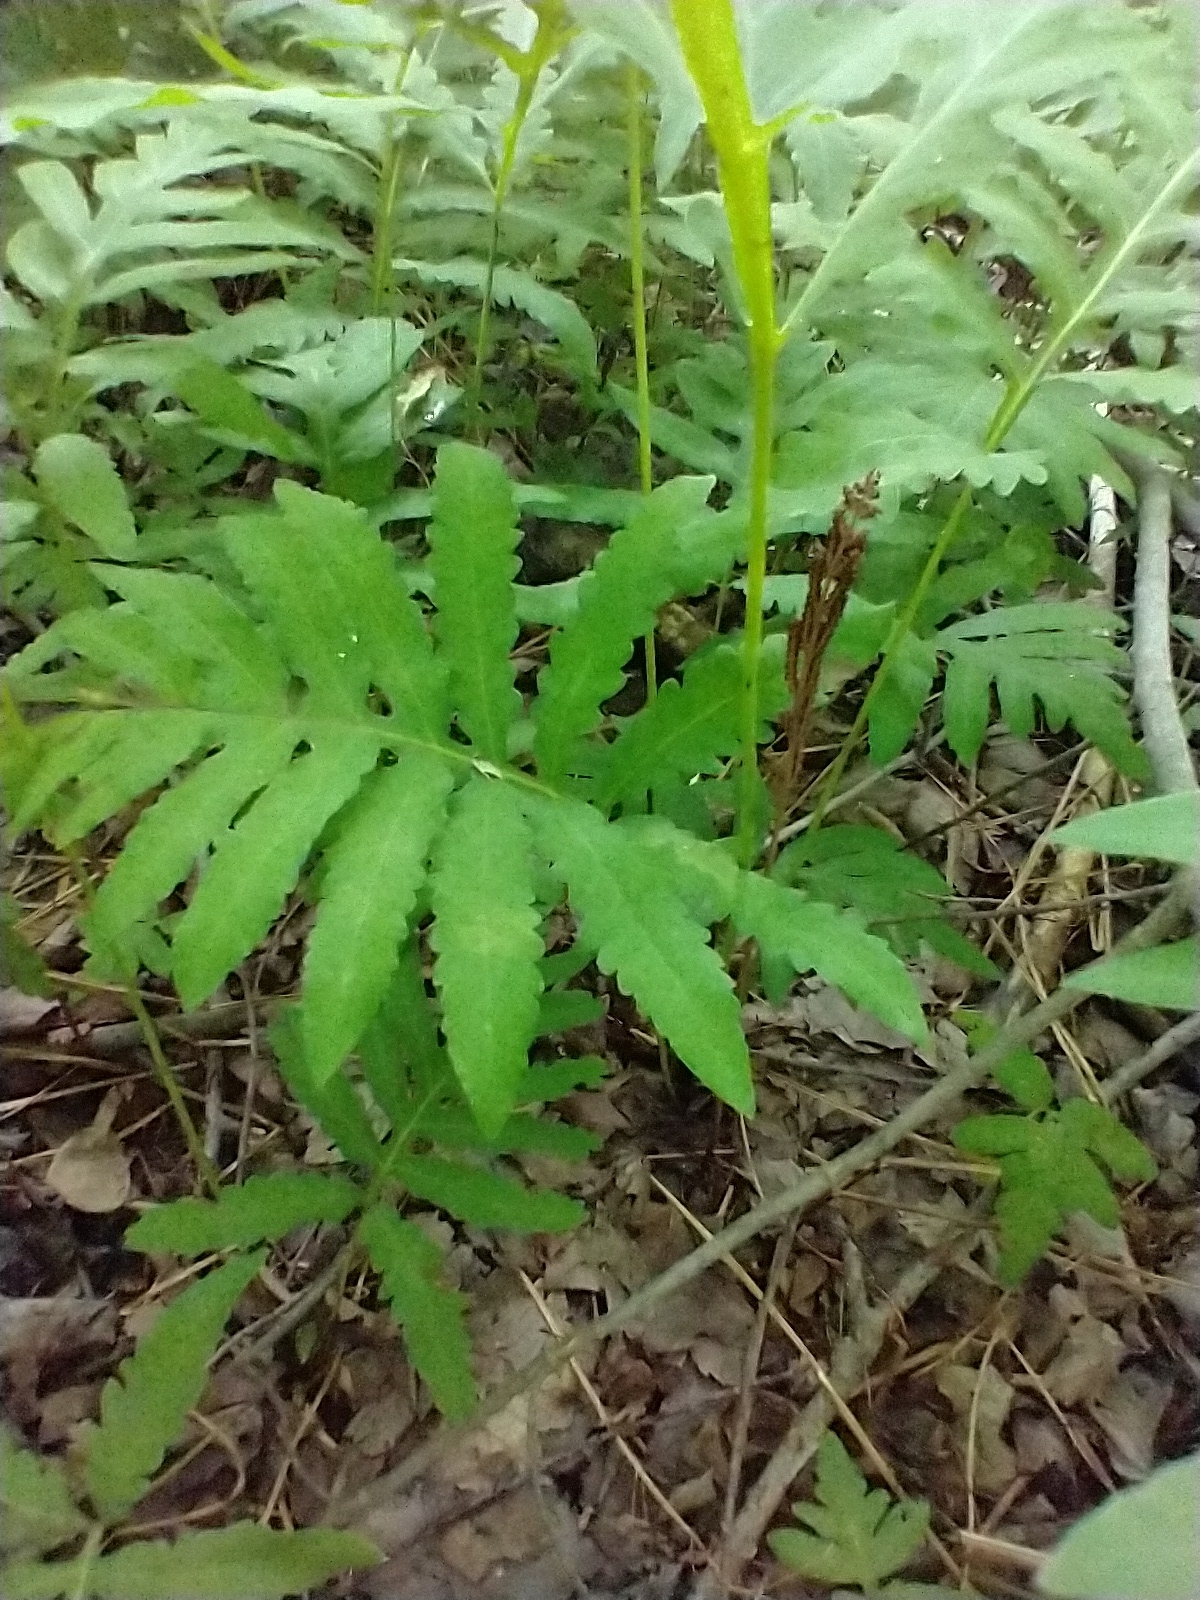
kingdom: Plantae
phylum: Tracheophyta
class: Polypodiopsida
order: Polypodiales
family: Onocleaceae
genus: Onoclea
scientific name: Onoclea sensibilis
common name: Sensitive fern
